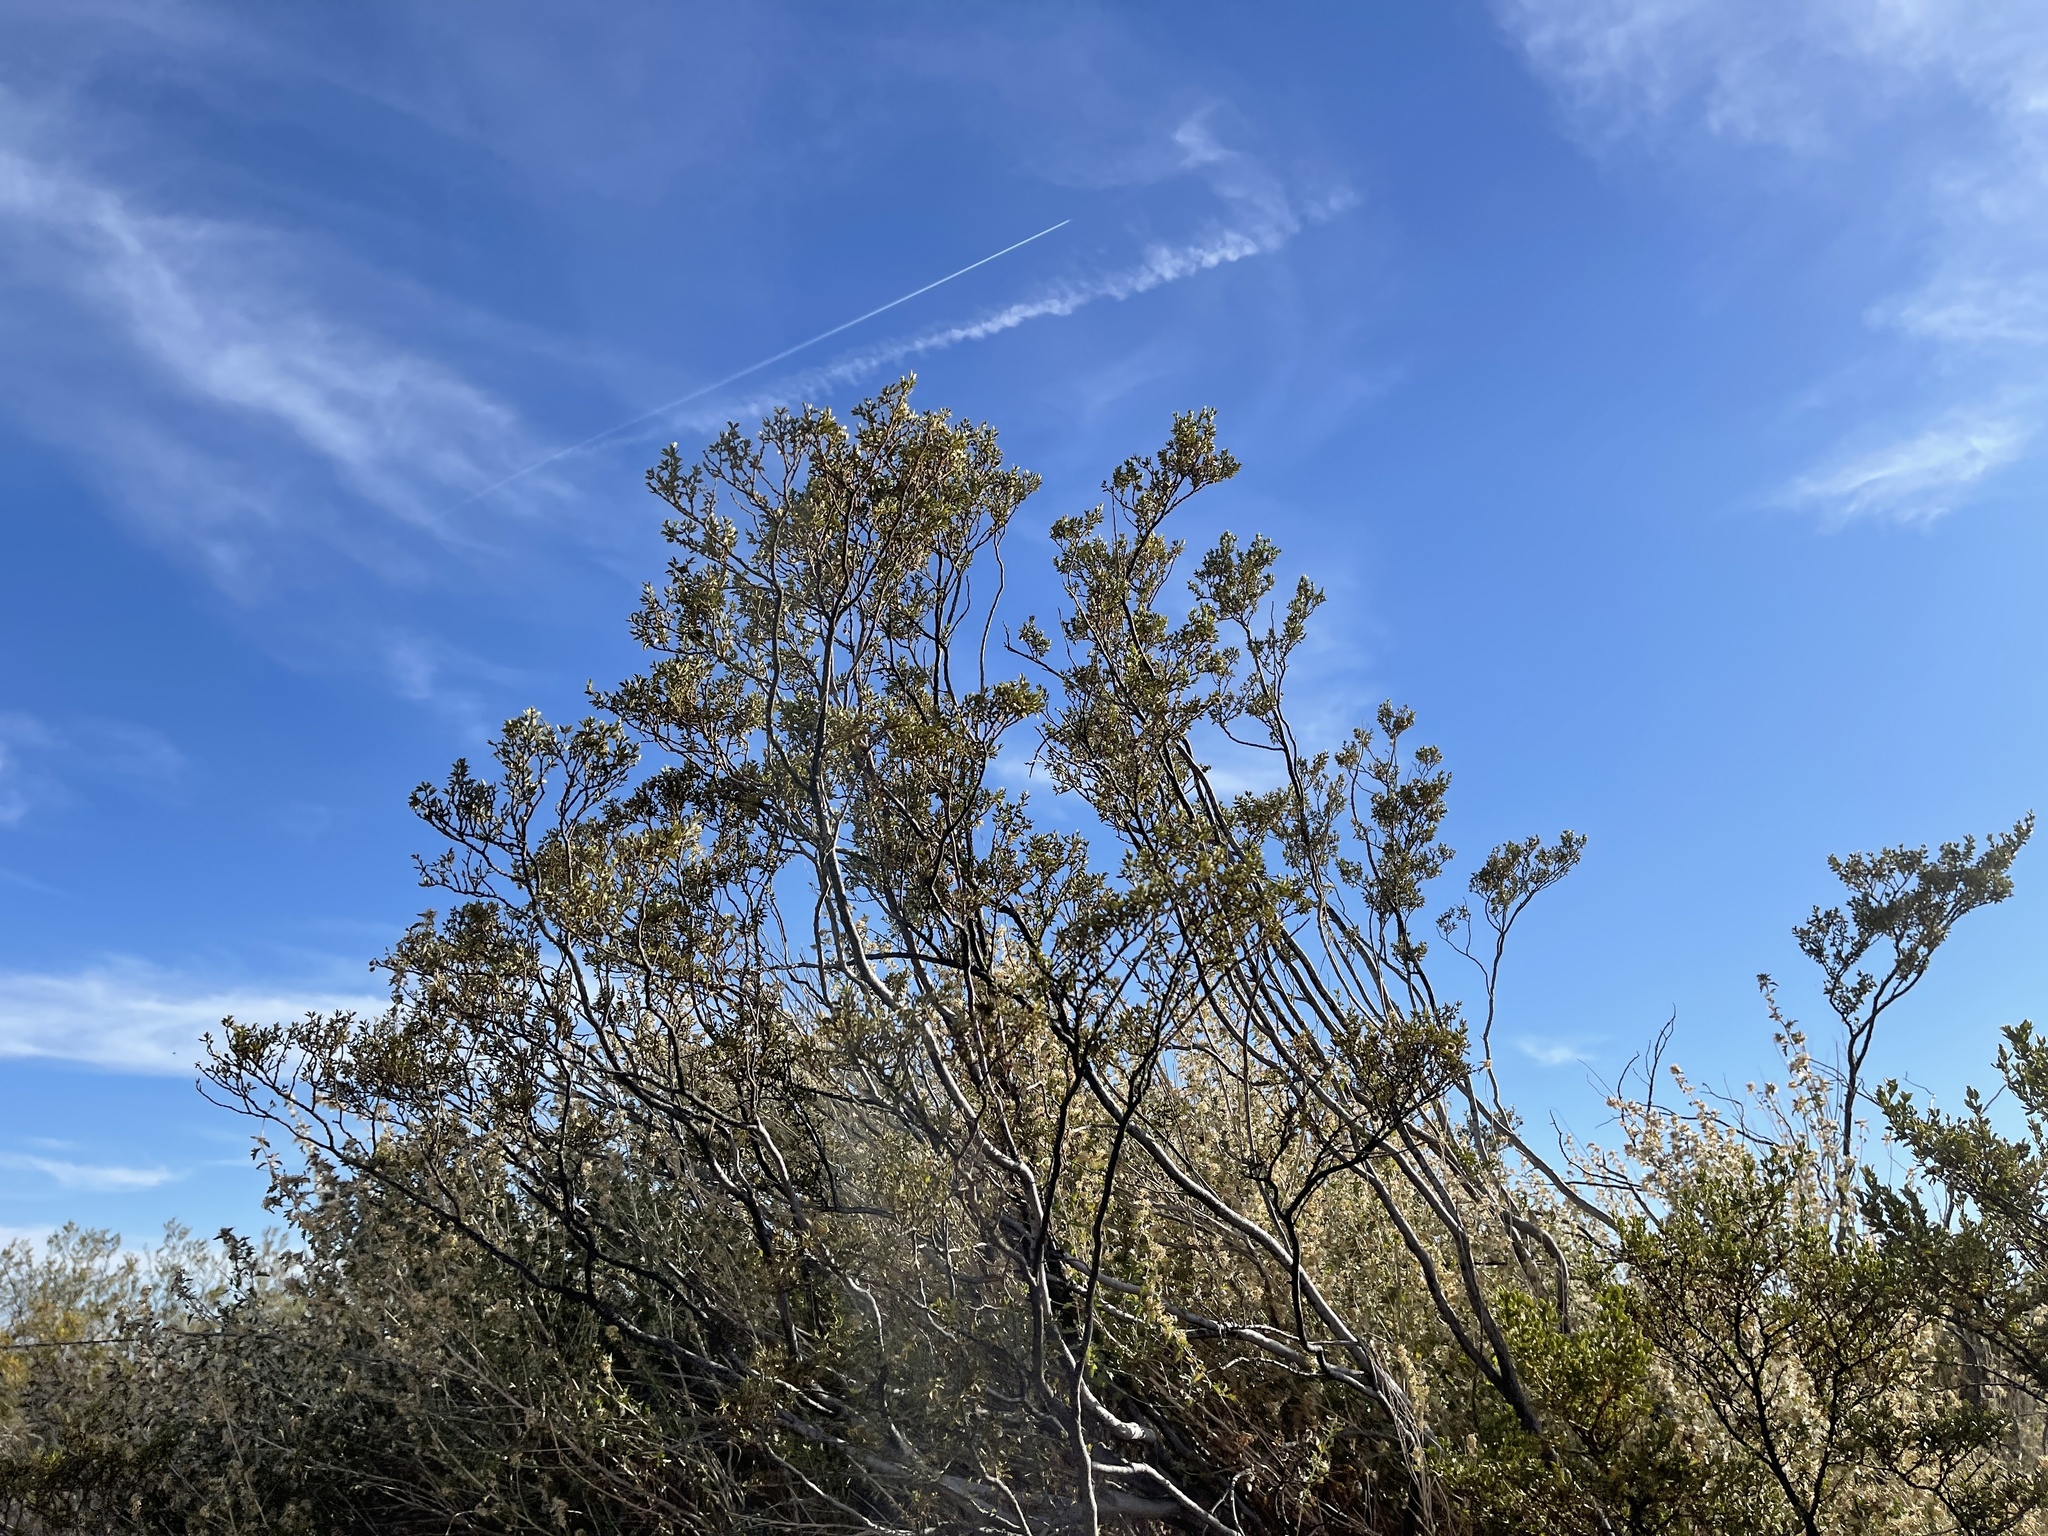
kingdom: Plantae
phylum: Tracheophyta
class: Magnoliopsida
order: Zygophyllales
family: Zygophyllaceae
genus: Larrea
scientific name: Larrea tridentata
